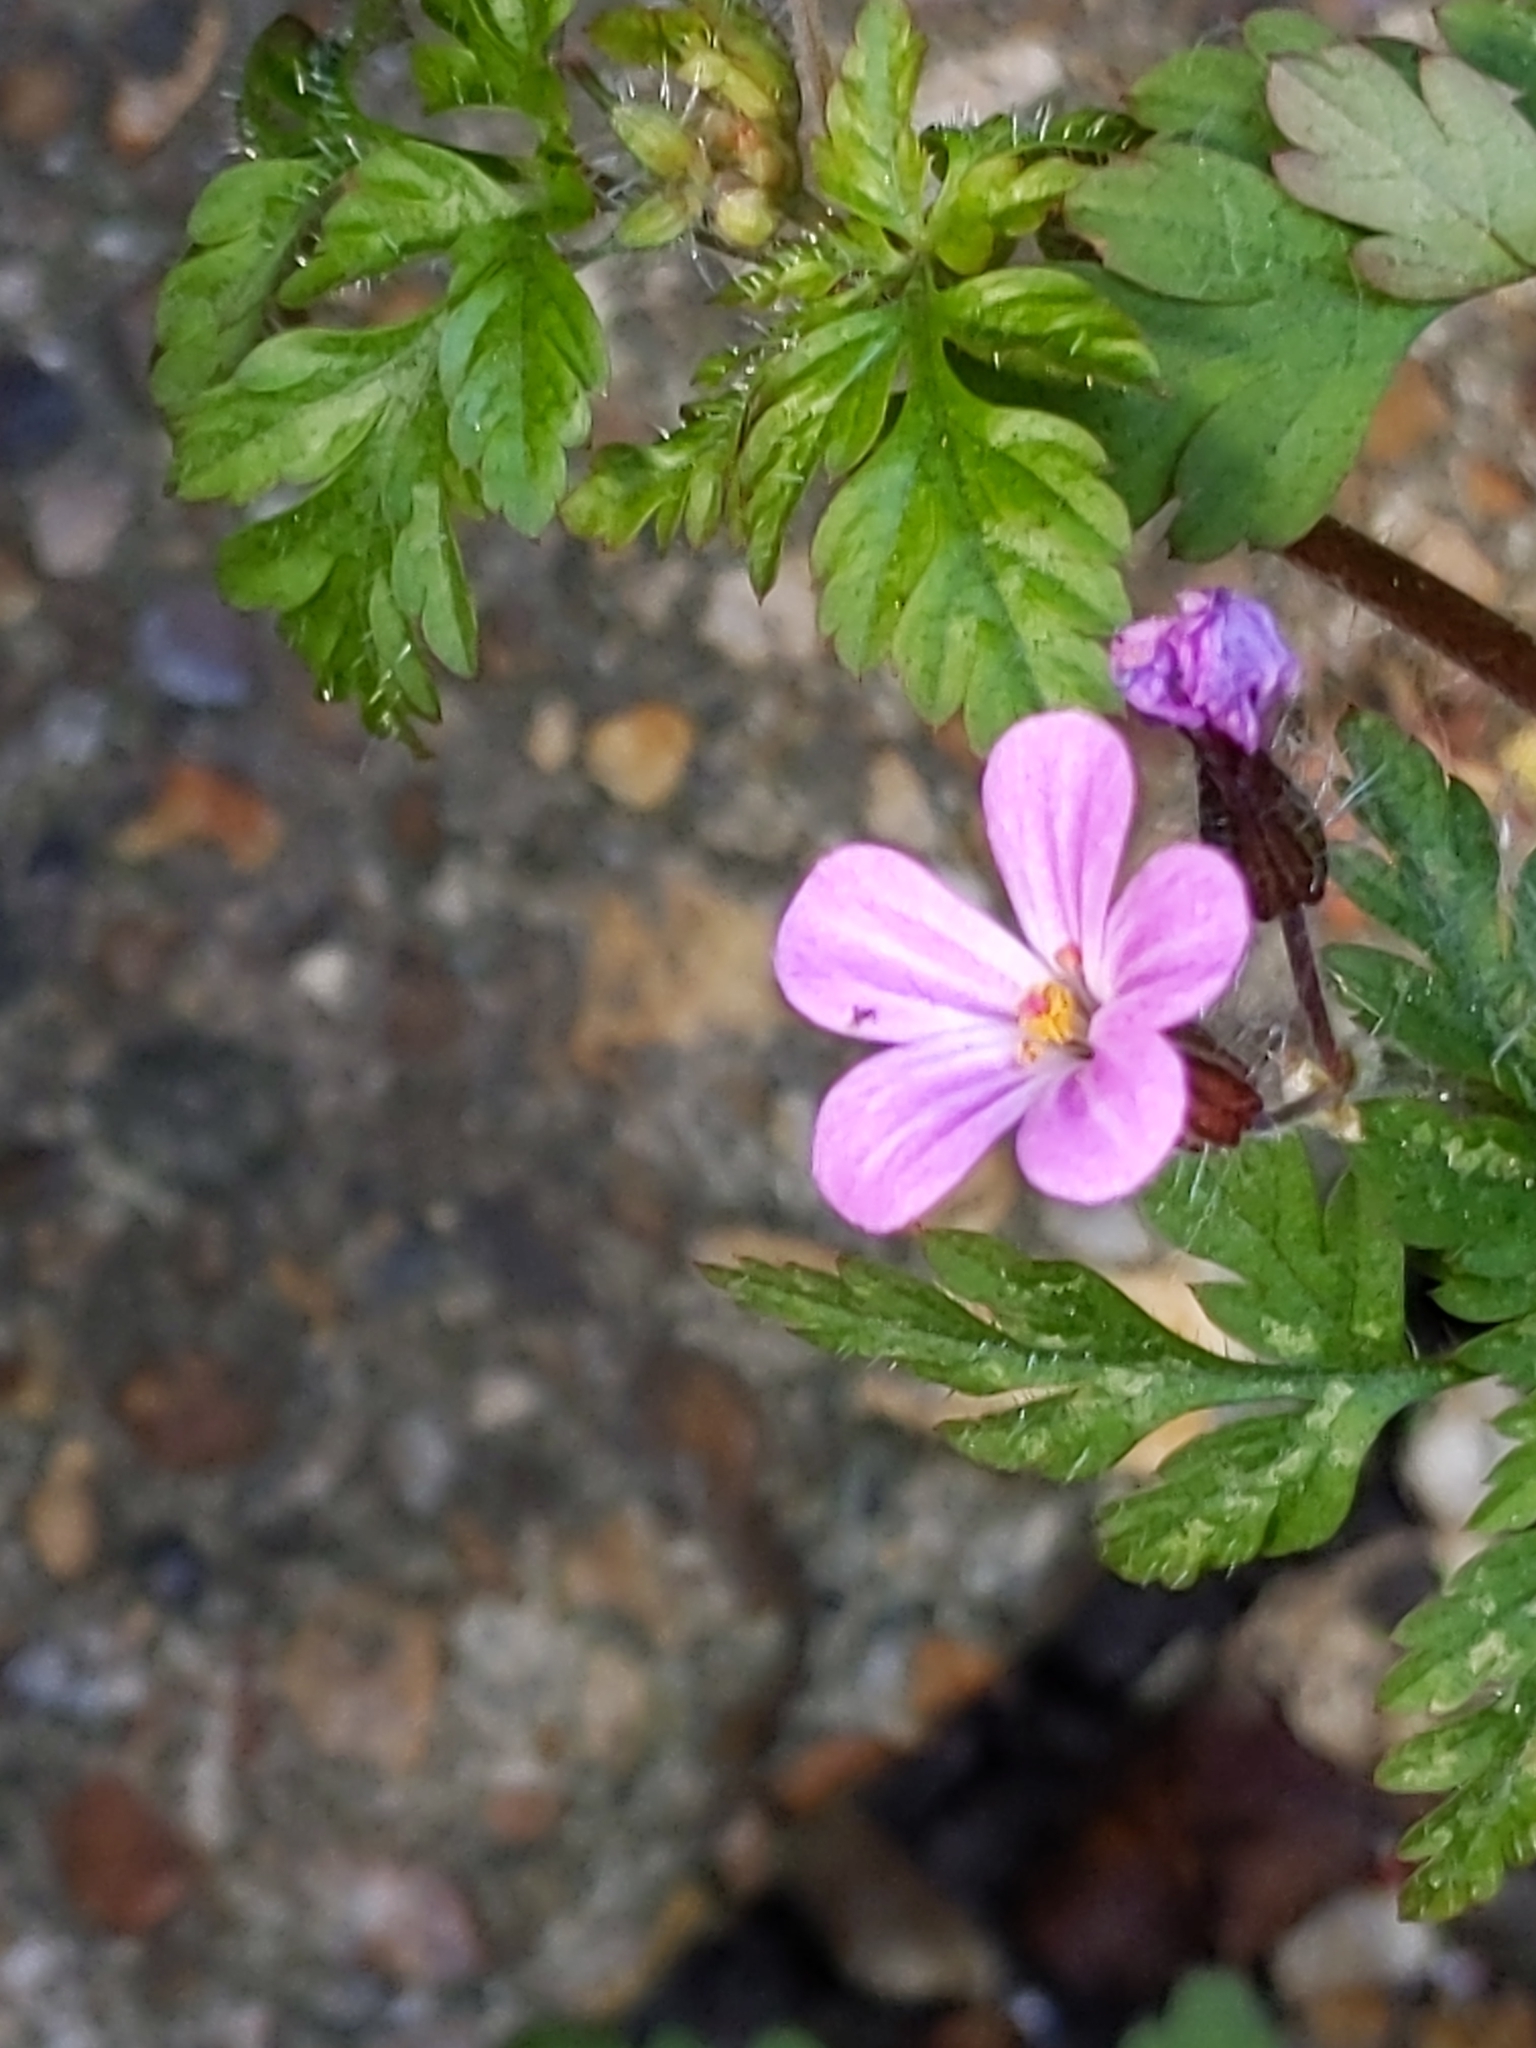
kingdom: Plantae
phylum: Tracheophyta
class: Magnoliopsida
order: Geraniales
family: Geraniaceae
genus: Geranium
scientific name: Geranium robertianum
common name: Herb-robert
